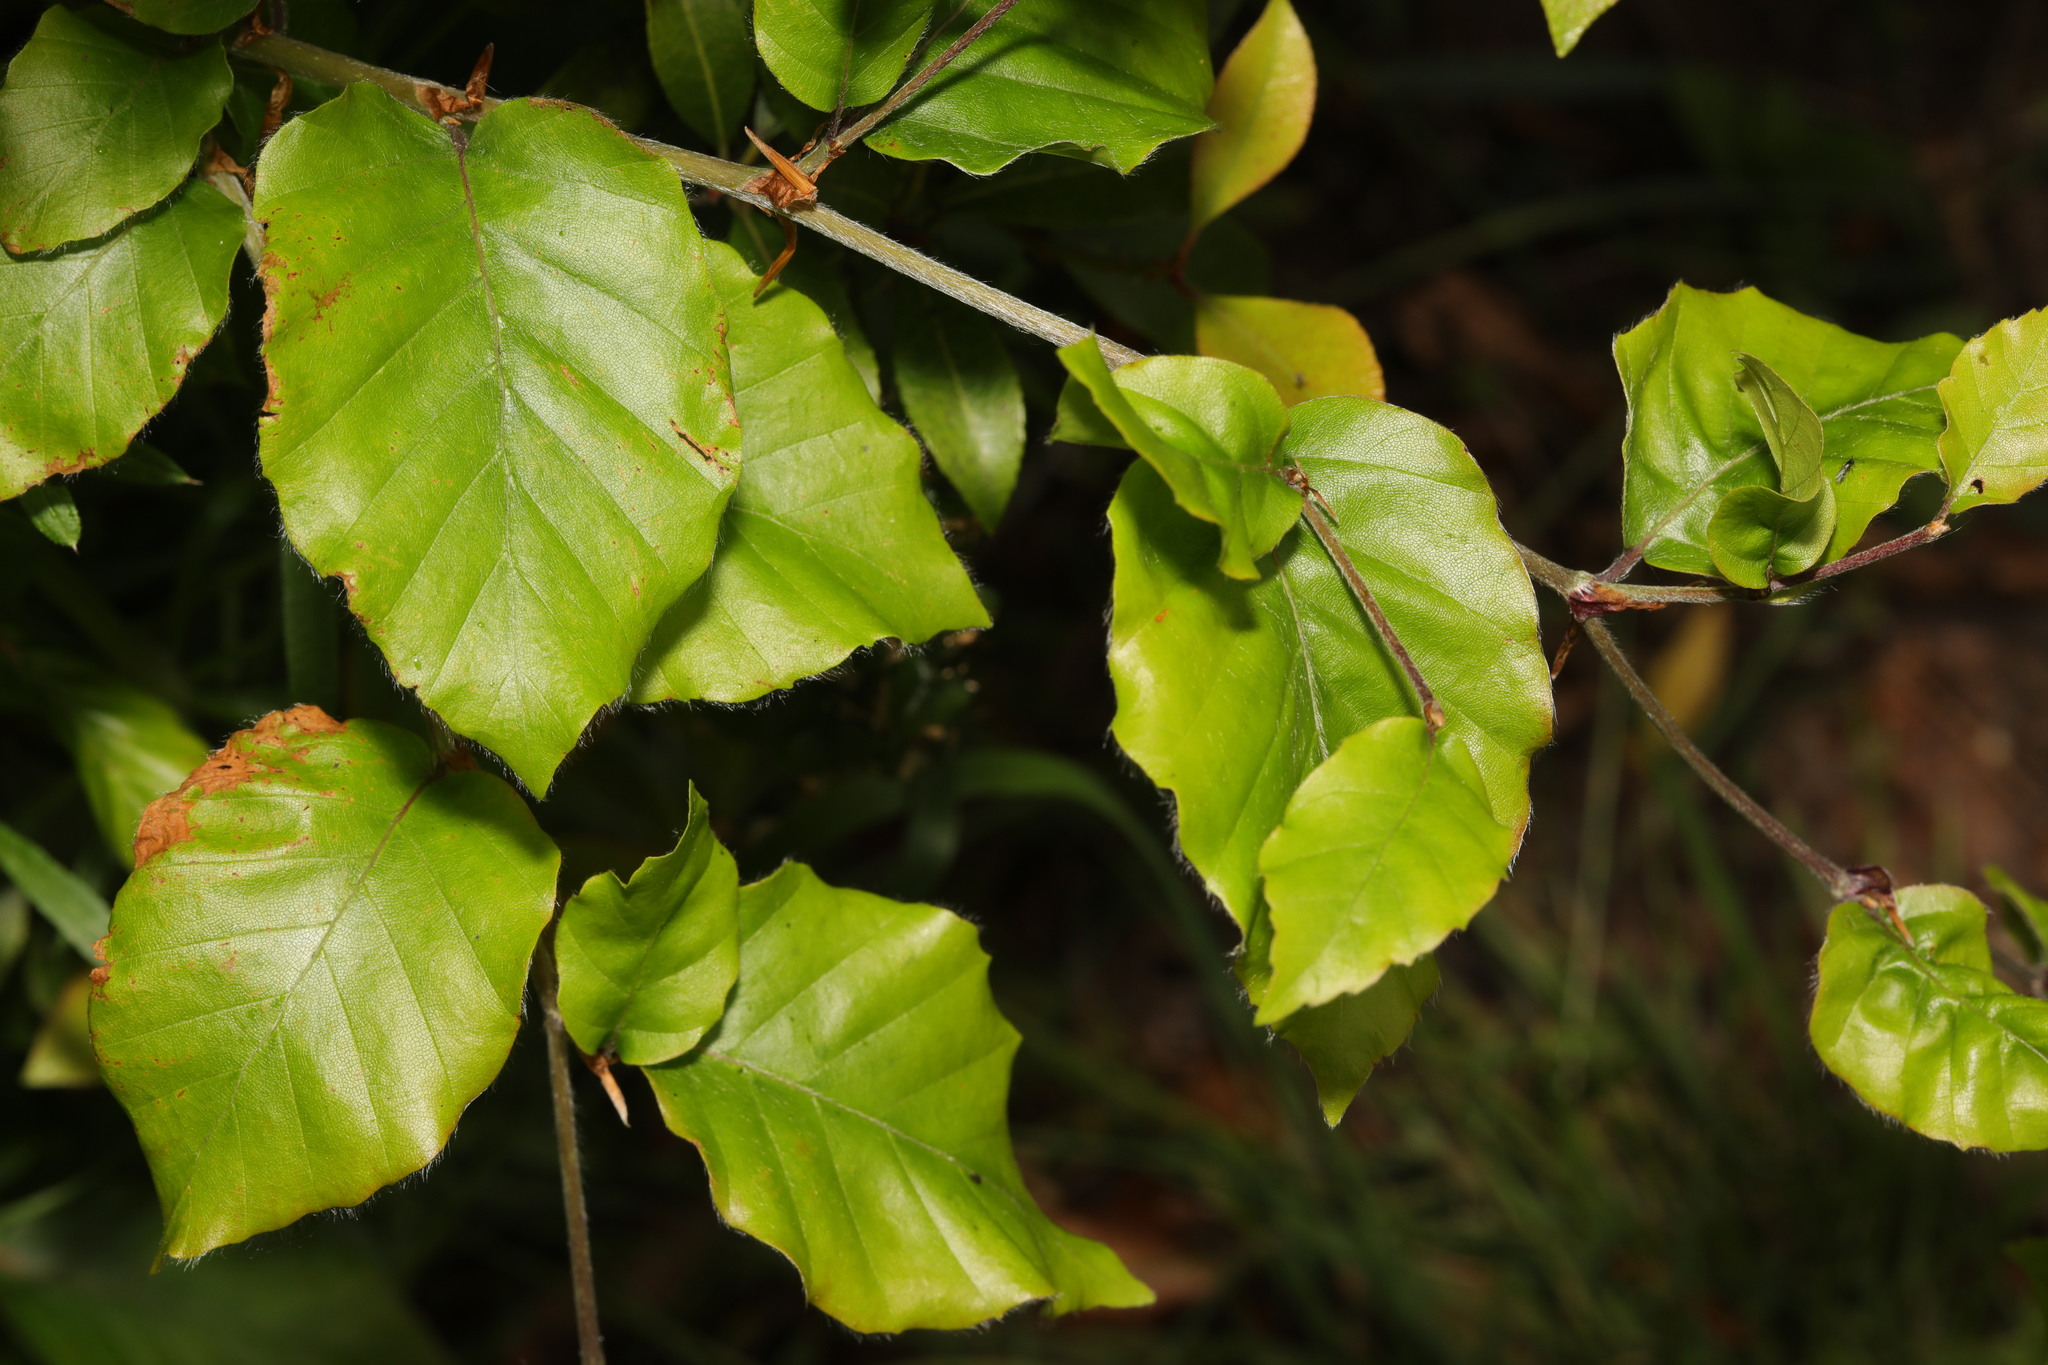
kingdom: Plantae
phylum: Tracheophyta
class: Magnoliopsida
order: Fagales
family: Fagaceae
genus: Fagus
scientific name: Fagus sylvatica
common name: Beech
